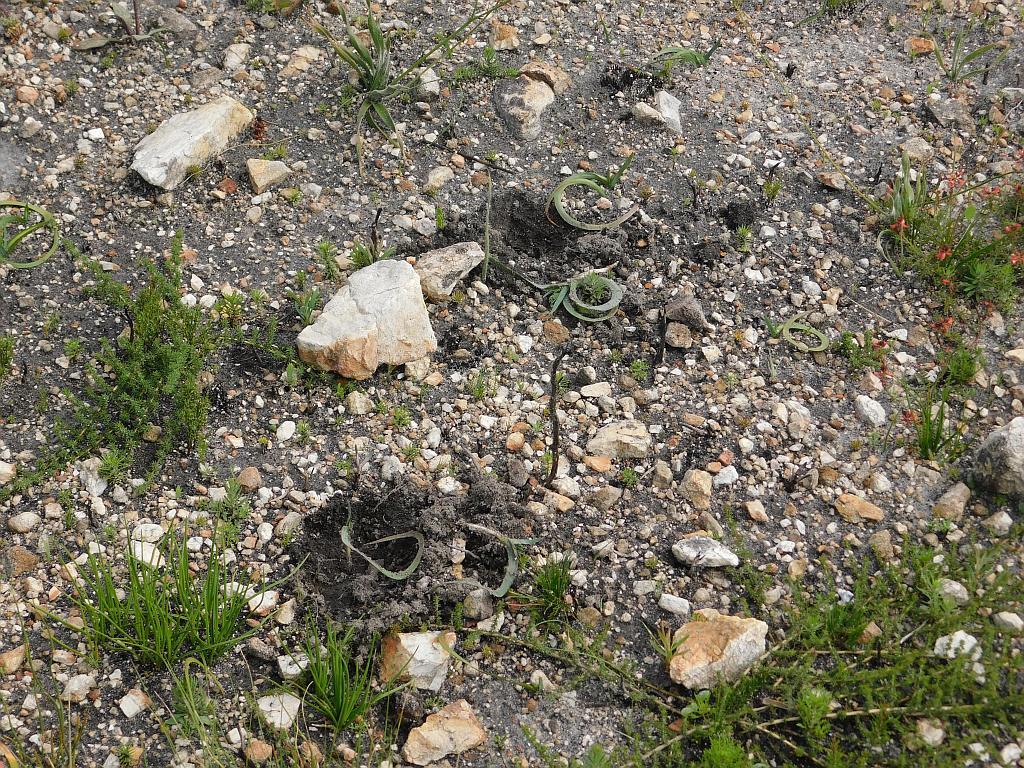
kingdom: Animalia
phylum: Chordata
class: Mammalia
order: Primates
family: Cercopithecidae
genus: Papio
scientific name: Papio ursinus
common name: Chacma baboon
